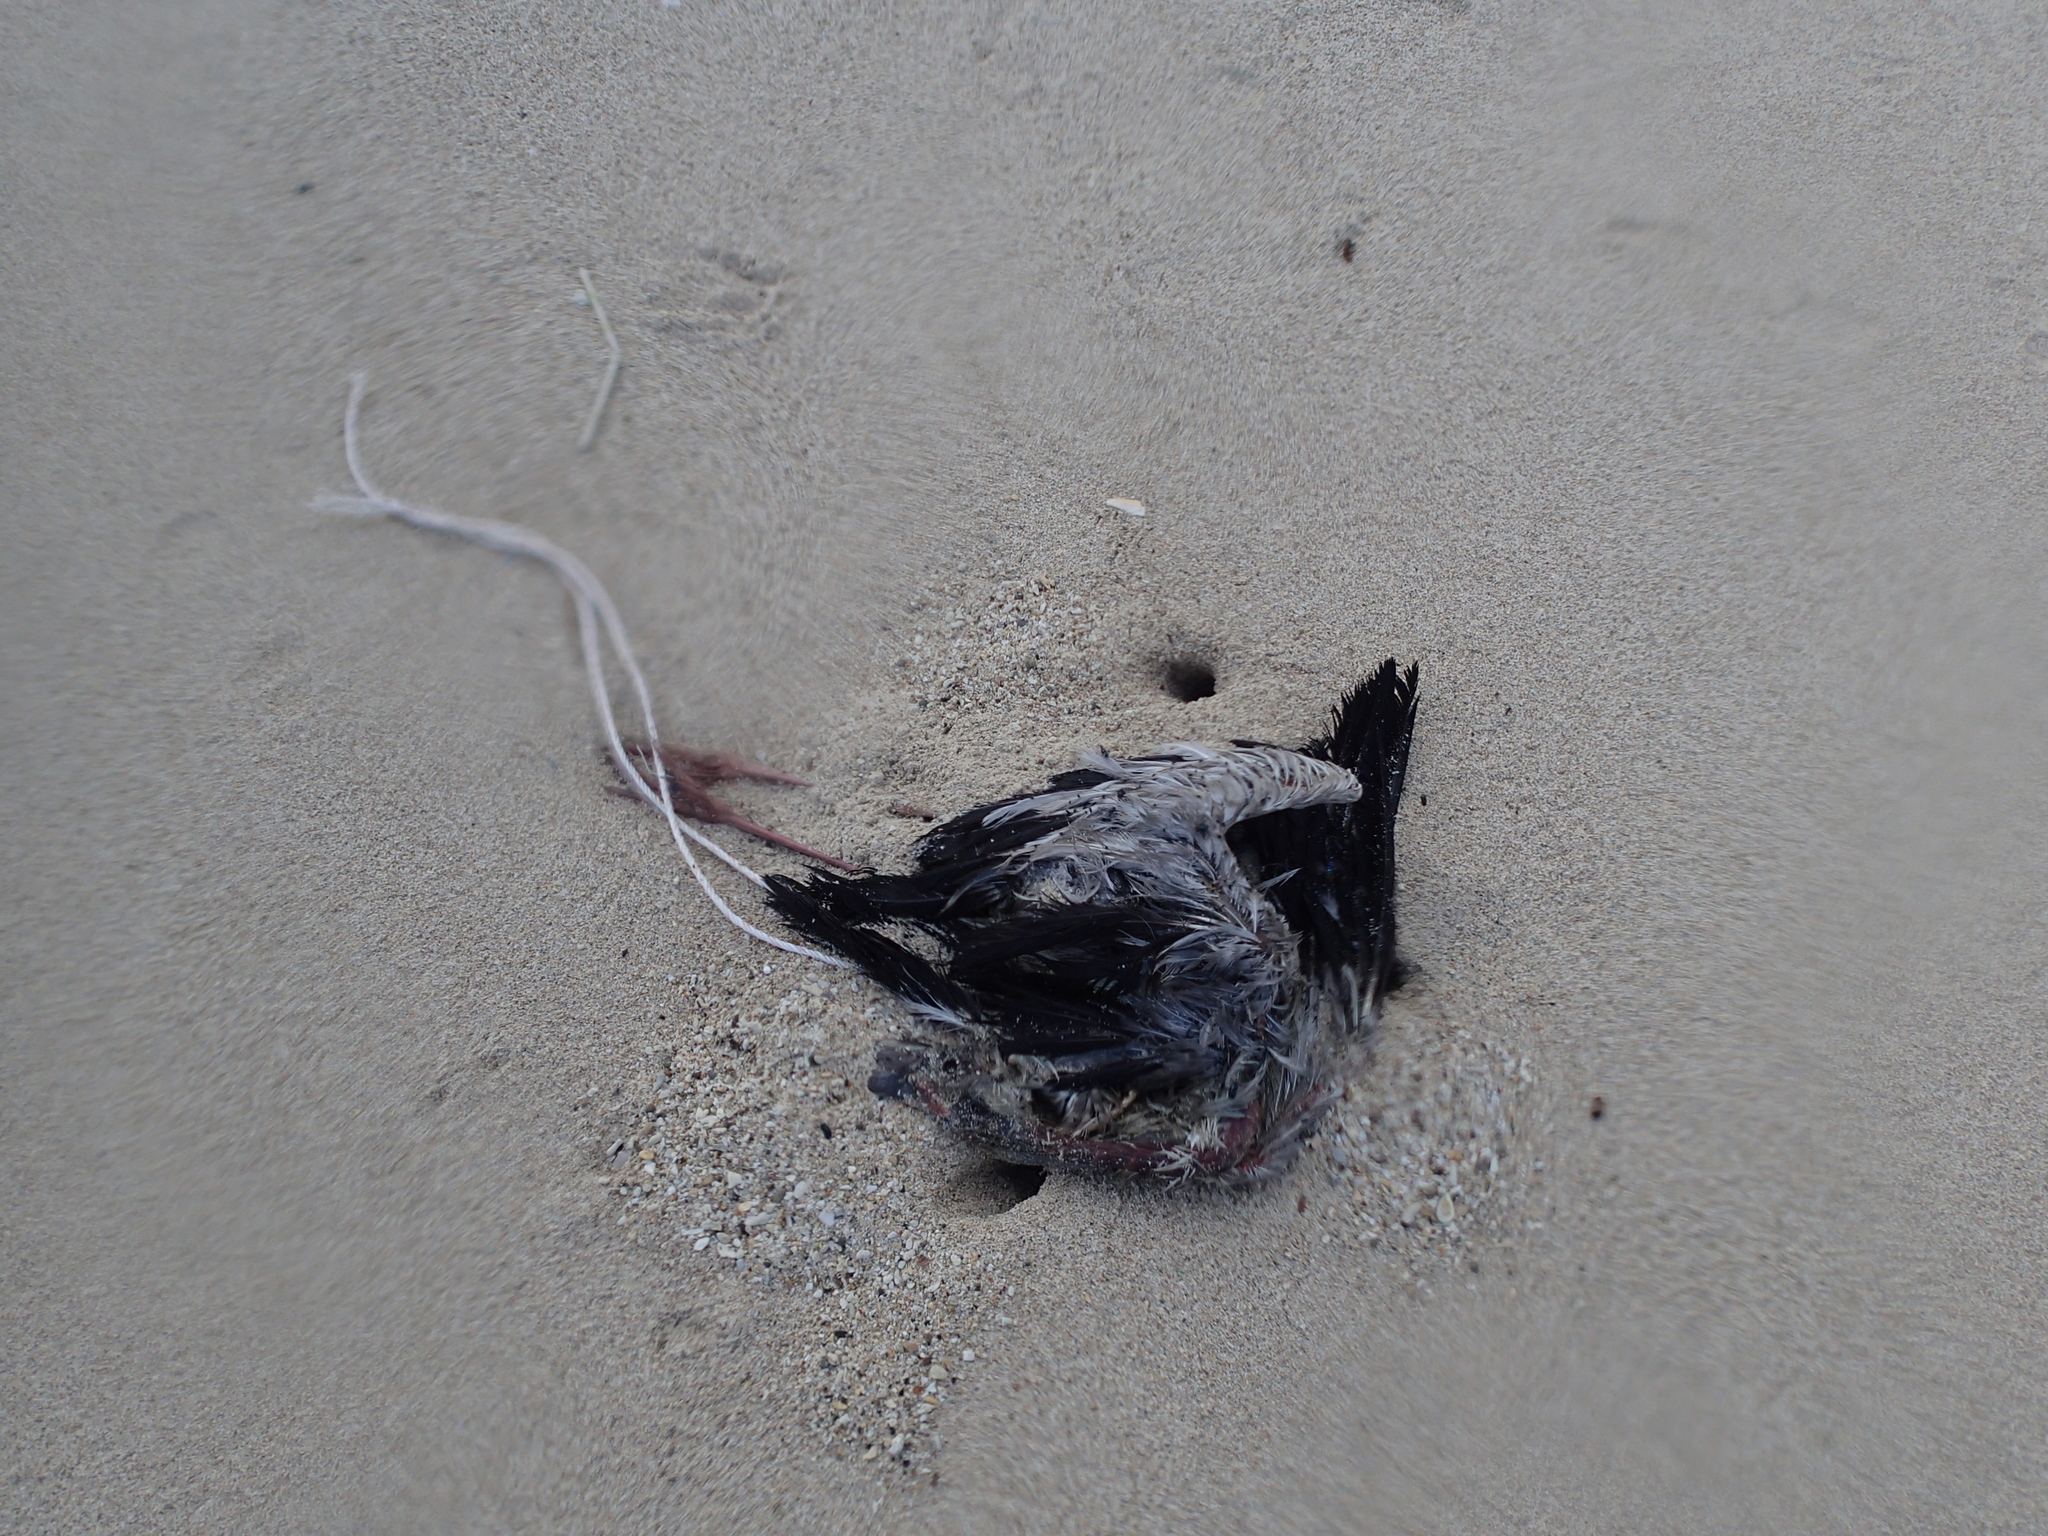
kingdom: Animalia
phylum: Chordata
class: Aves
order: Ciconiiformes
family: Ciconiidae
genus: Anastomus
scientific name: Anastomus oscitans
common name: Asian openbill
